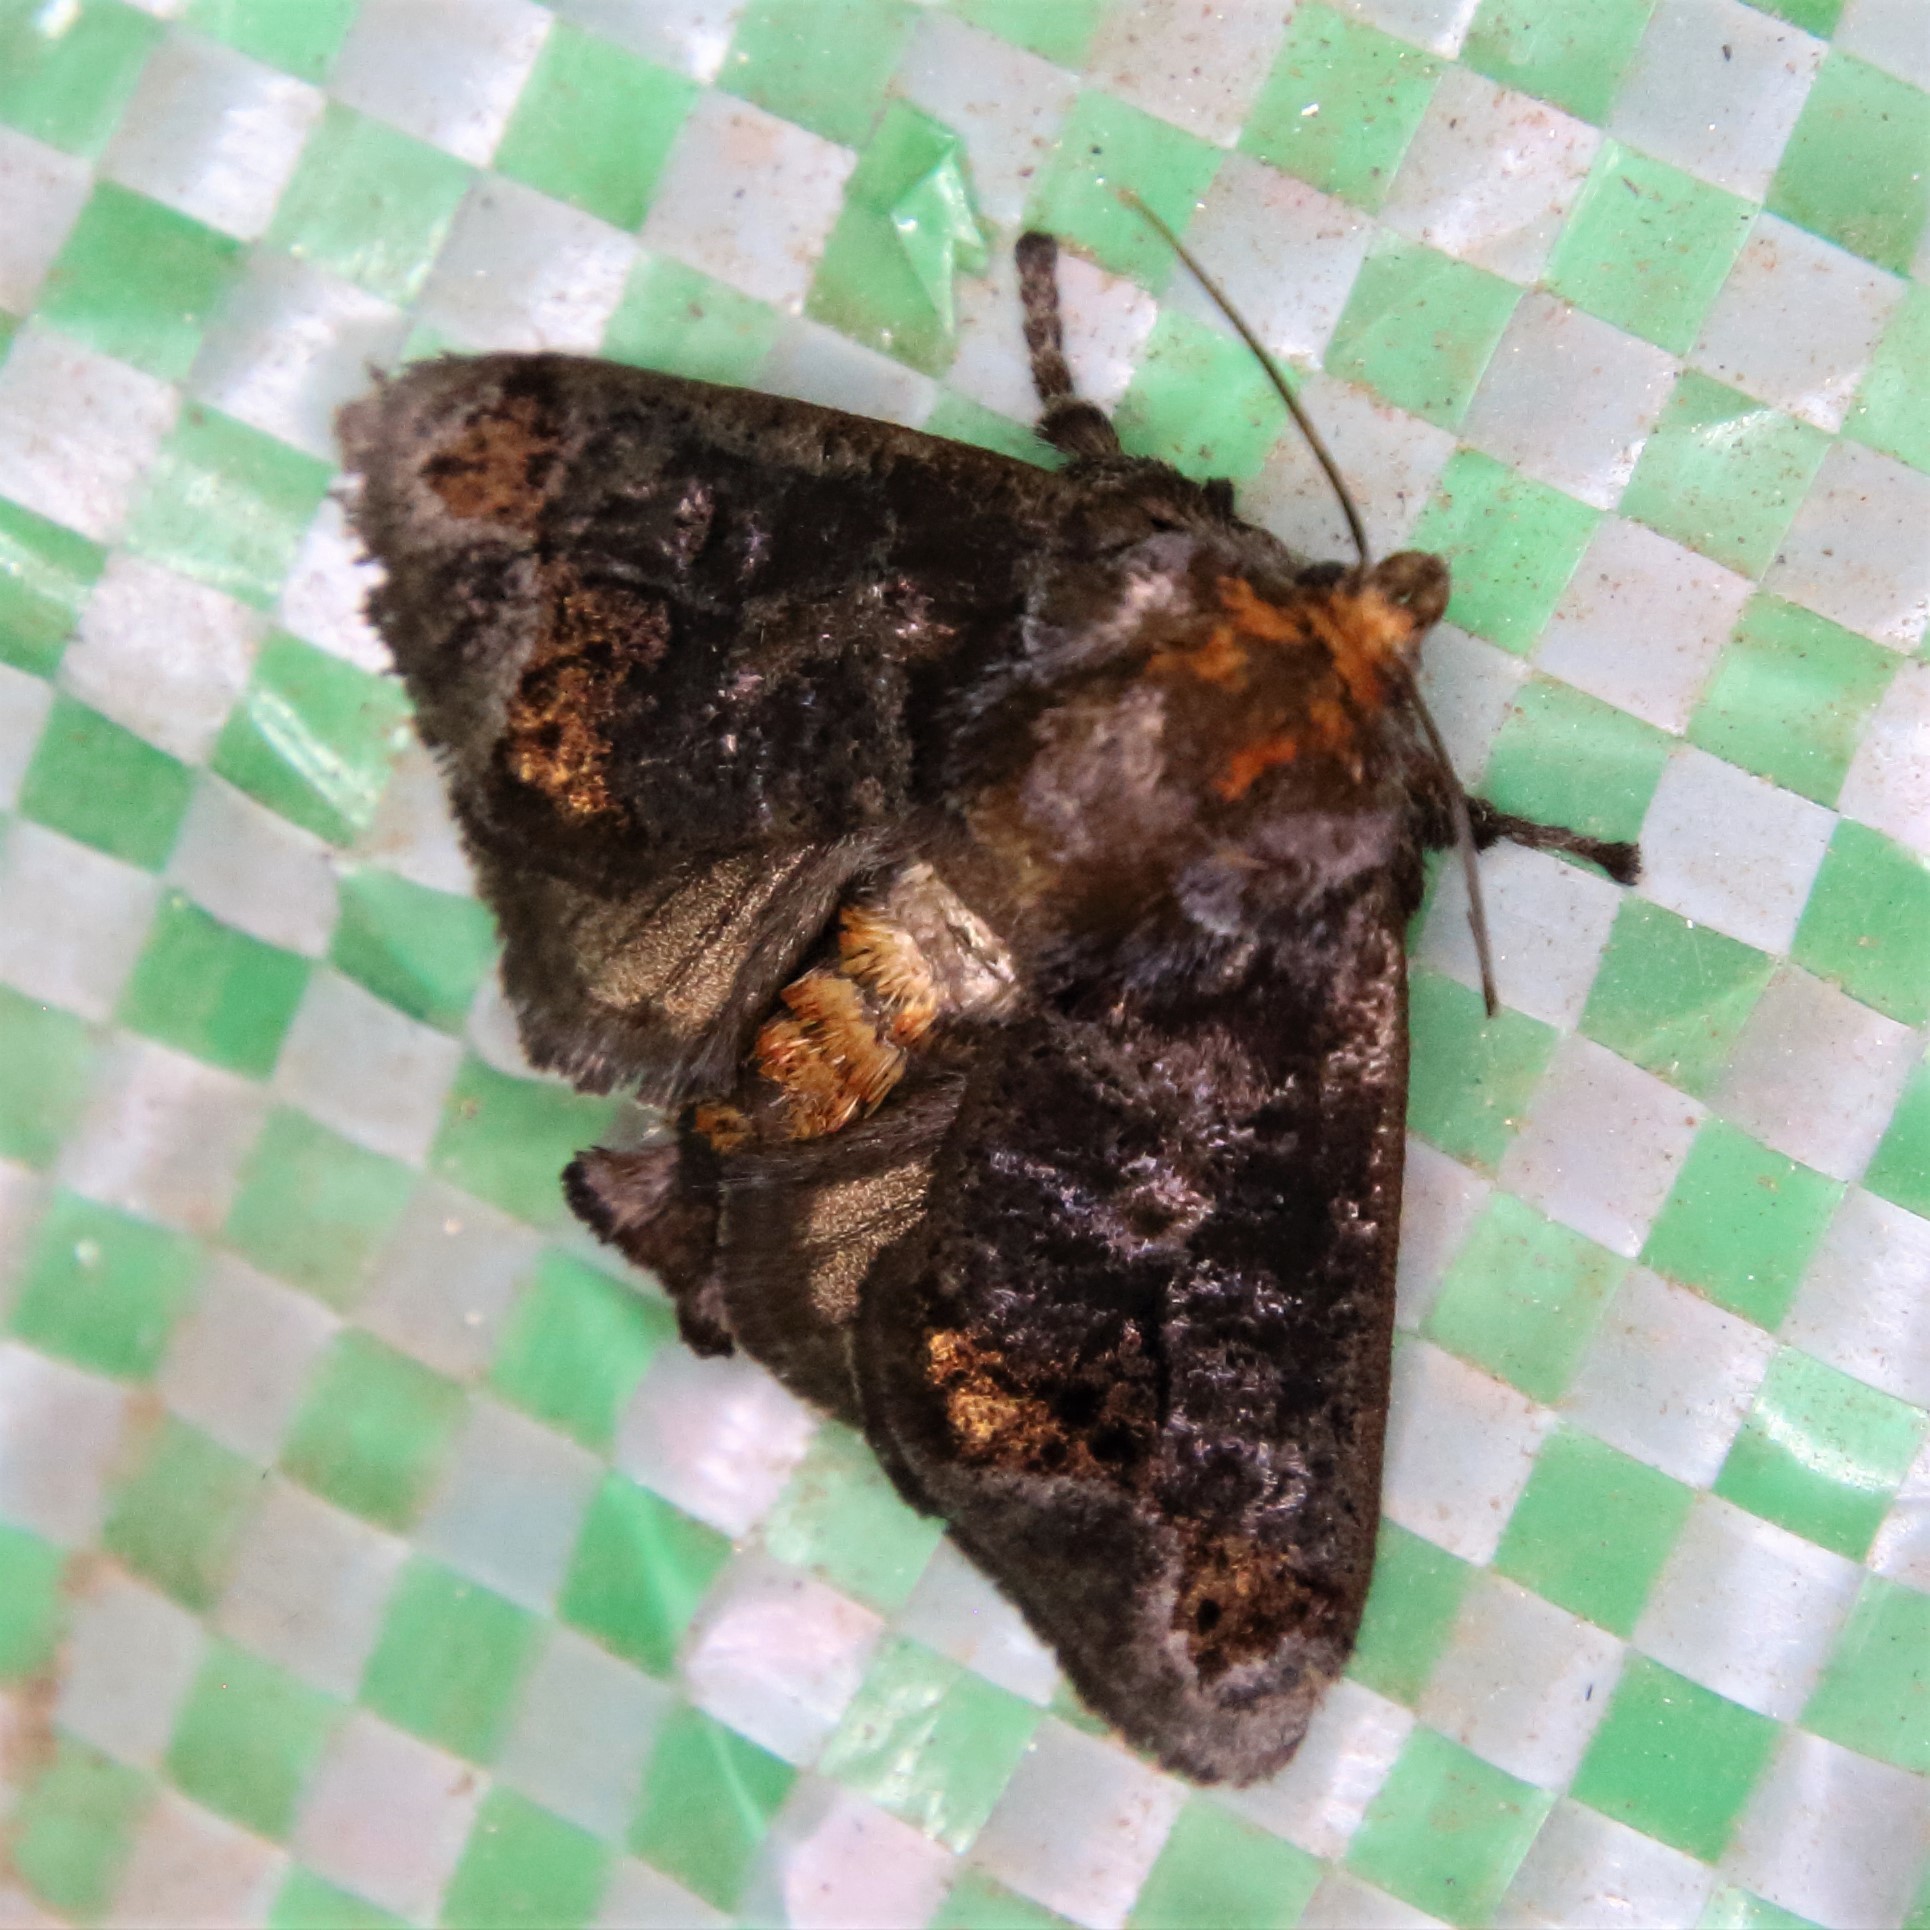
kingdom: Animalia
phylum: Arthropoda
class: Insecta
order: Lepidoptera
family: Limacodidae
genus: Phlossa
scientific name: Phlossa conjuncta
